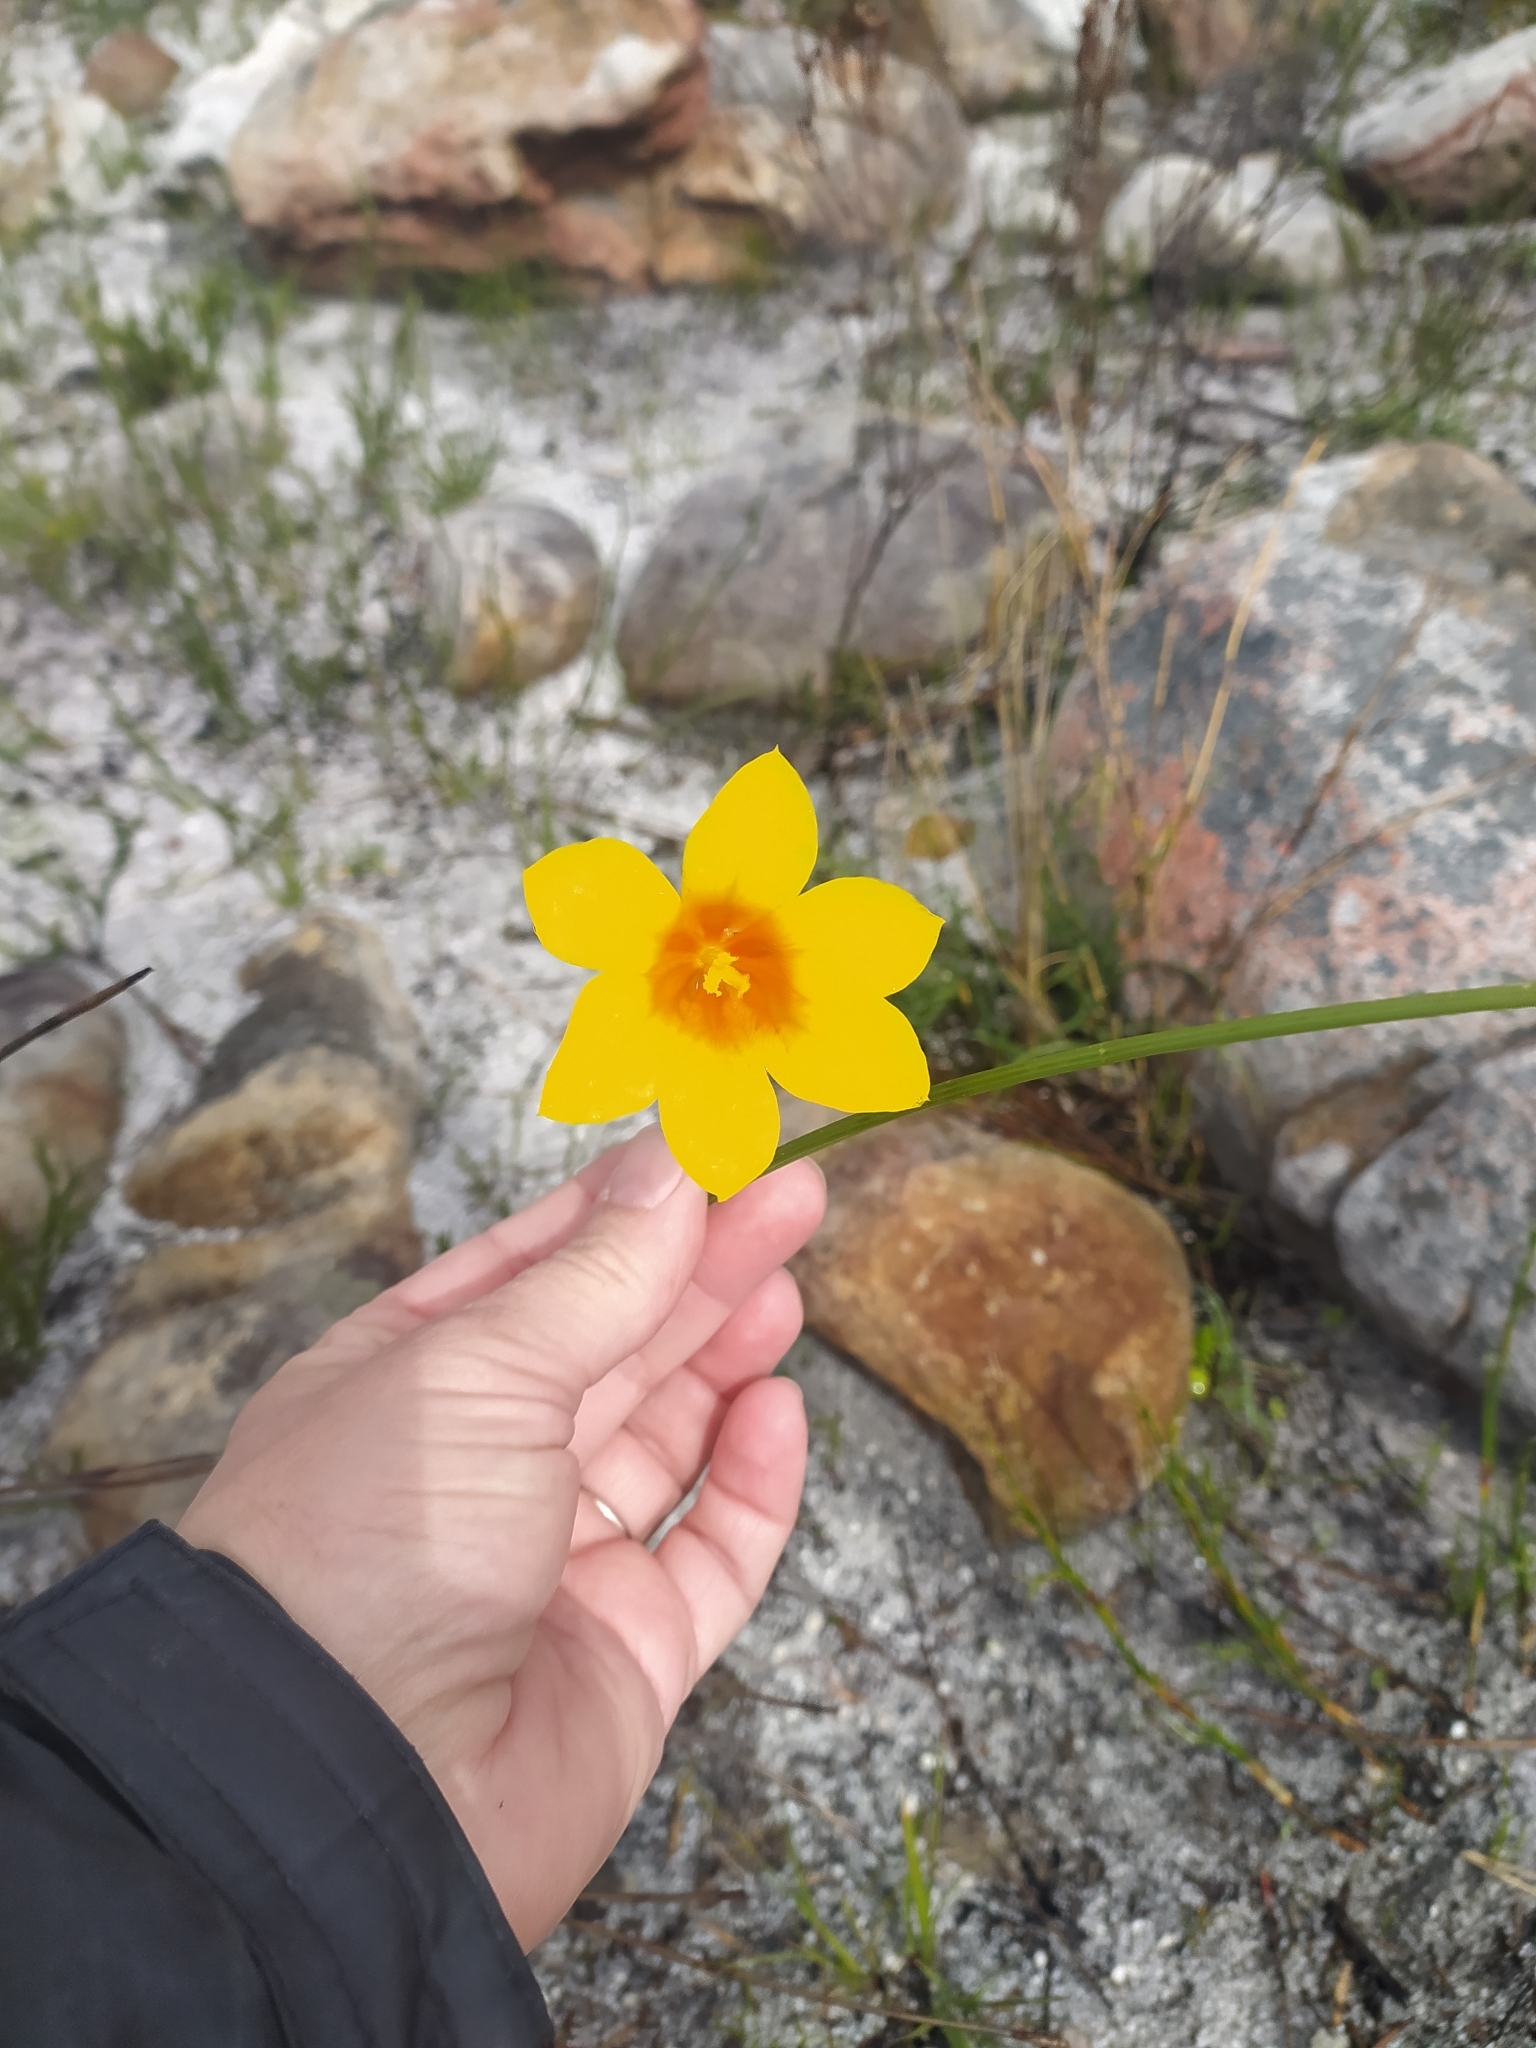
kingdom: Plantae
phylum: Tracheophyta
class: Liliopsida
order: Asparagales
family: Iridaceae
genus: Moraea
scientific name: Moraea ochroleuca
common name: Red tulp
